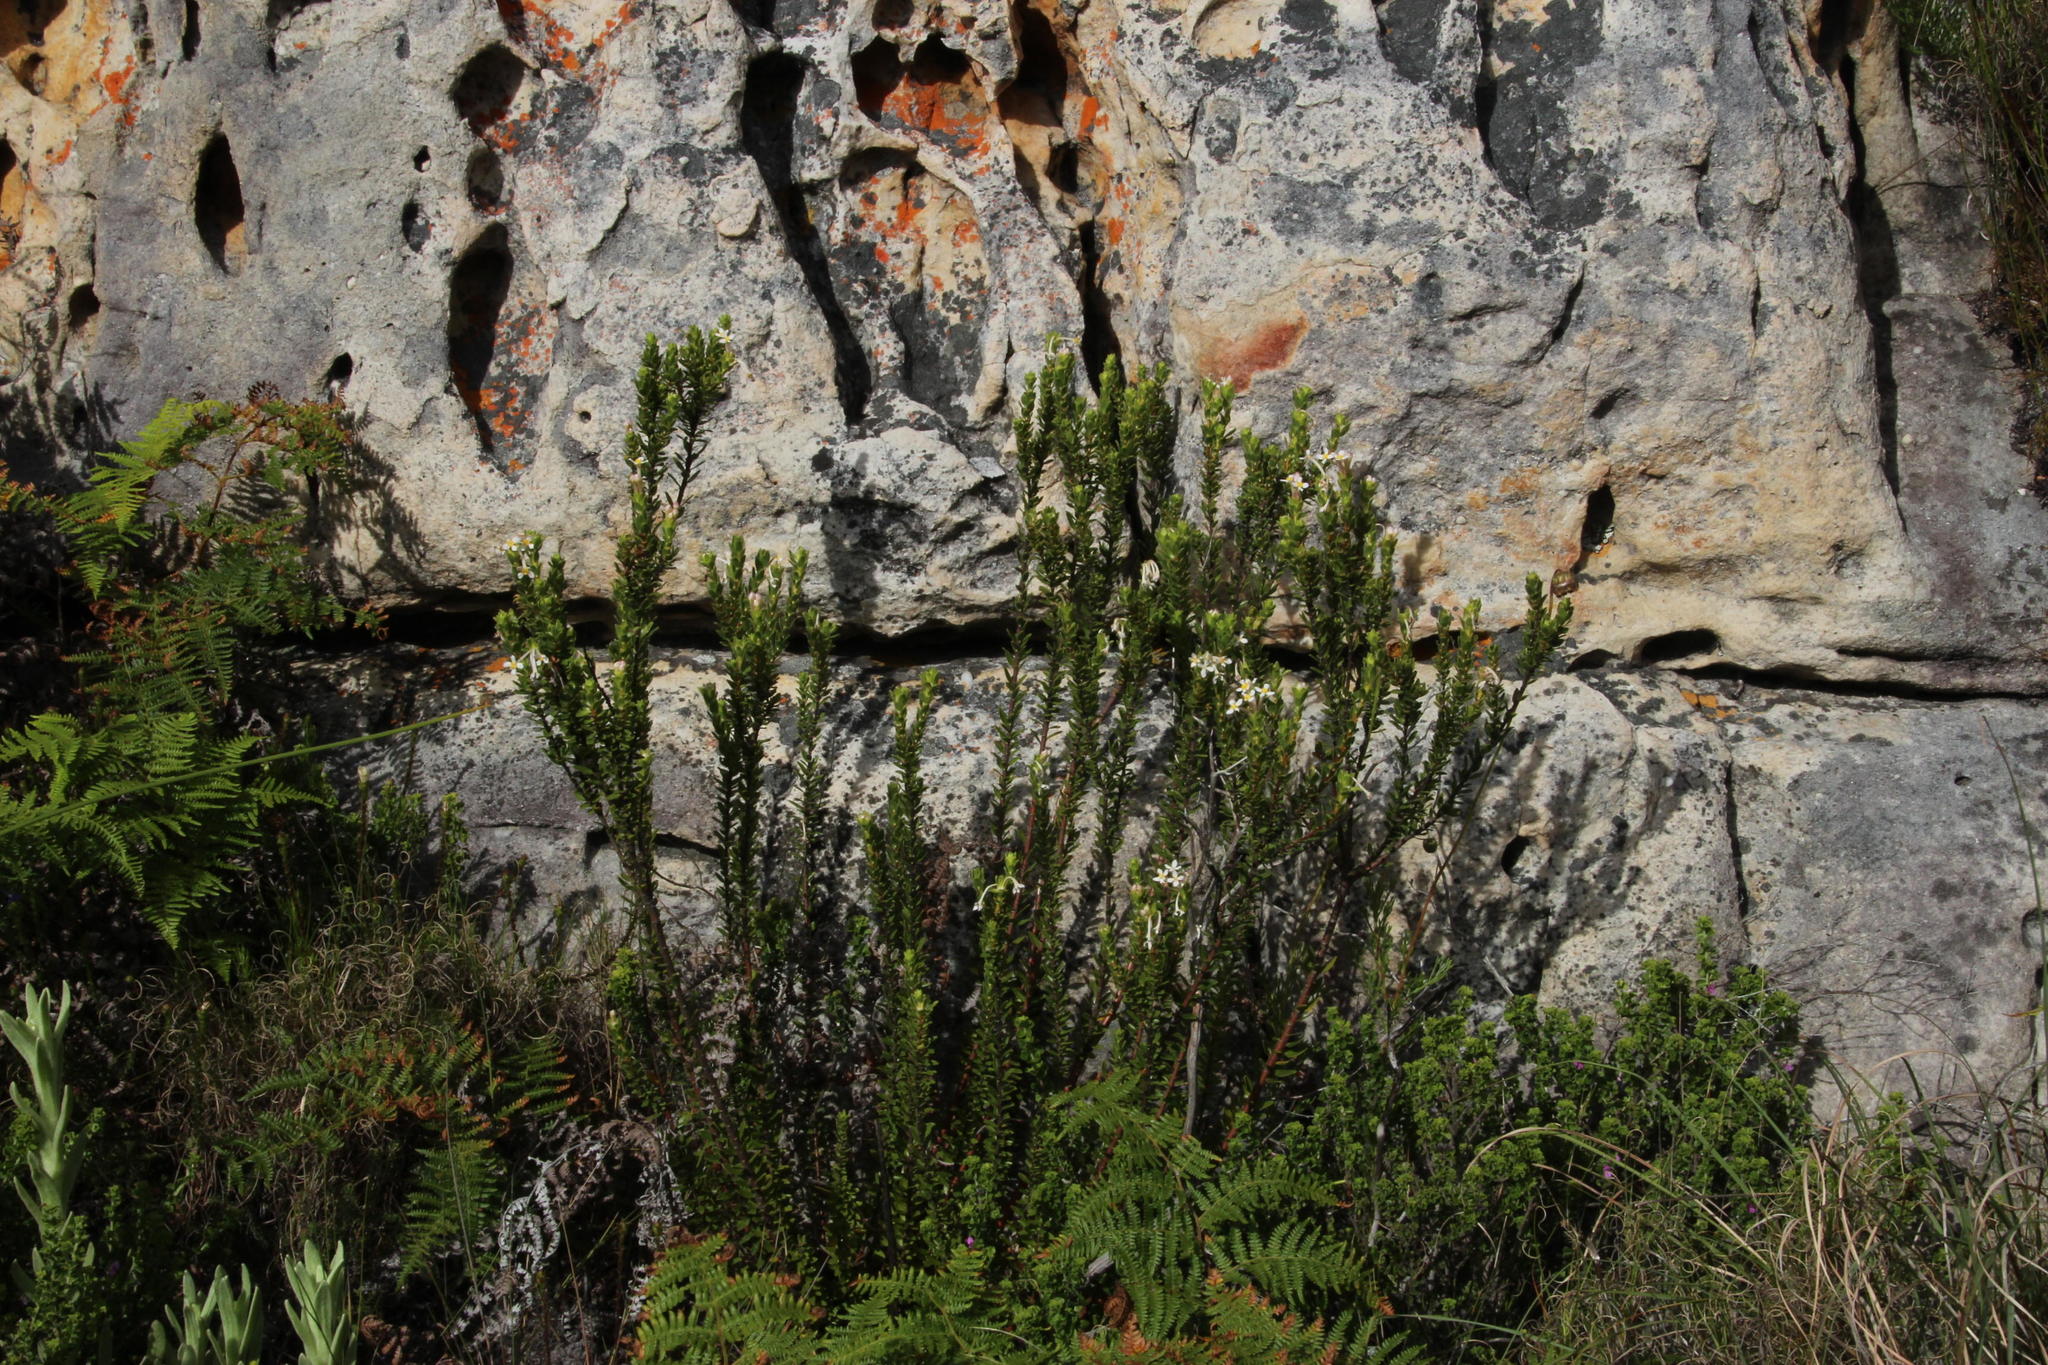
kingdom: Plantae
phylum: Tracheophyta
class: Magnoliopsida
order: Malvales
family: Thymelaeaceae
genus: Gnidia
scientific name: Gnidia tomentosa
